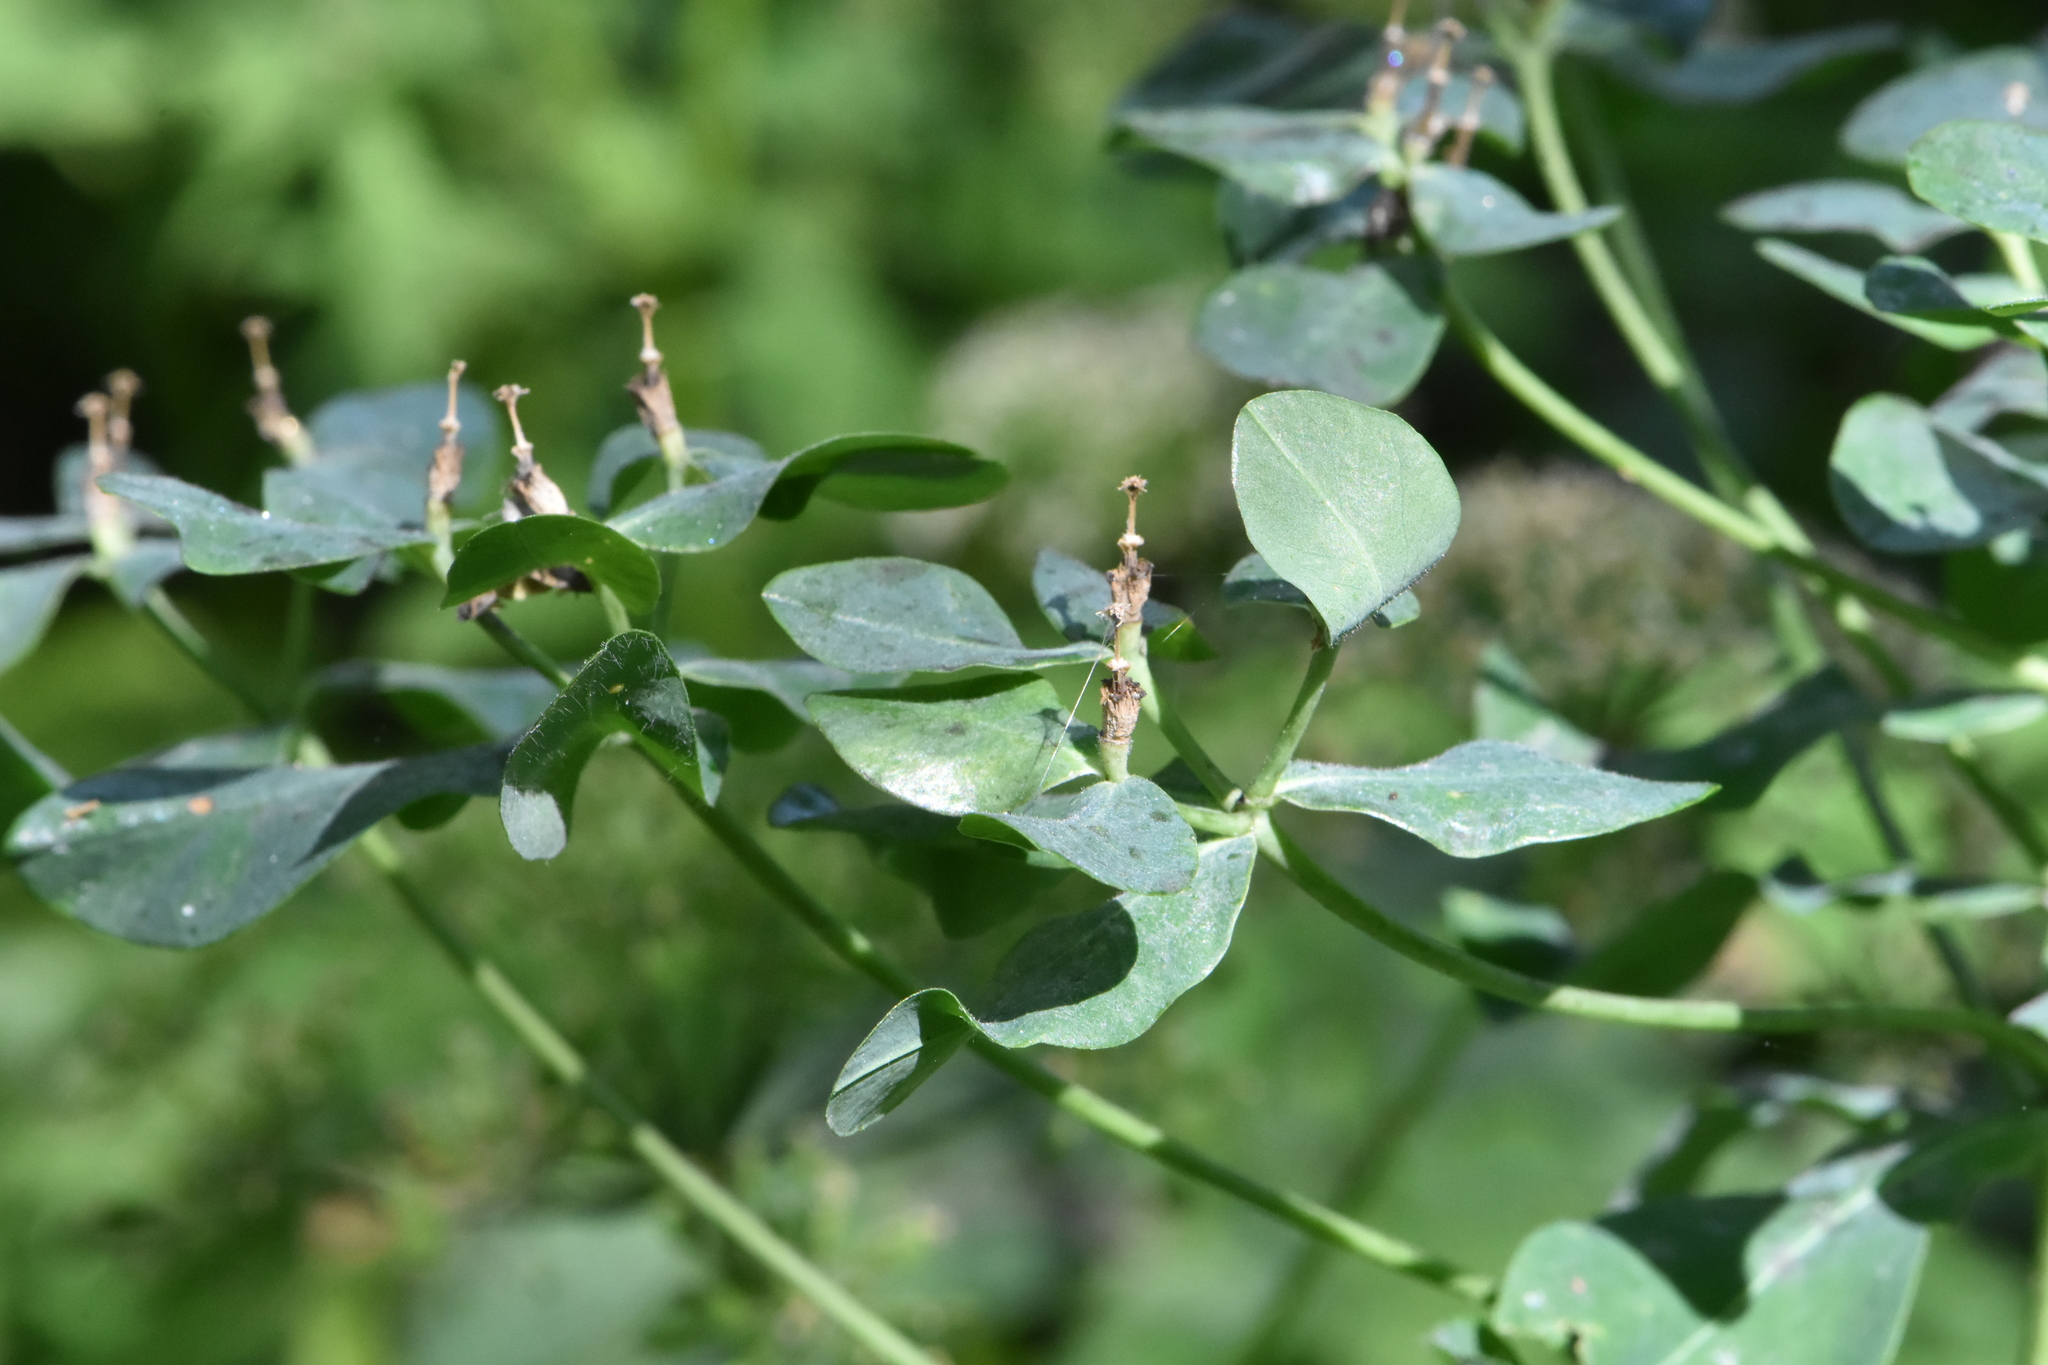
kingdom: Plantae
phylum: Tracheophyta
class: Magnoliopsida
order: Malpighiales
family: Euphorbiaceae
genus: Euphorbia
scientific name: Euphorbia pilosa
